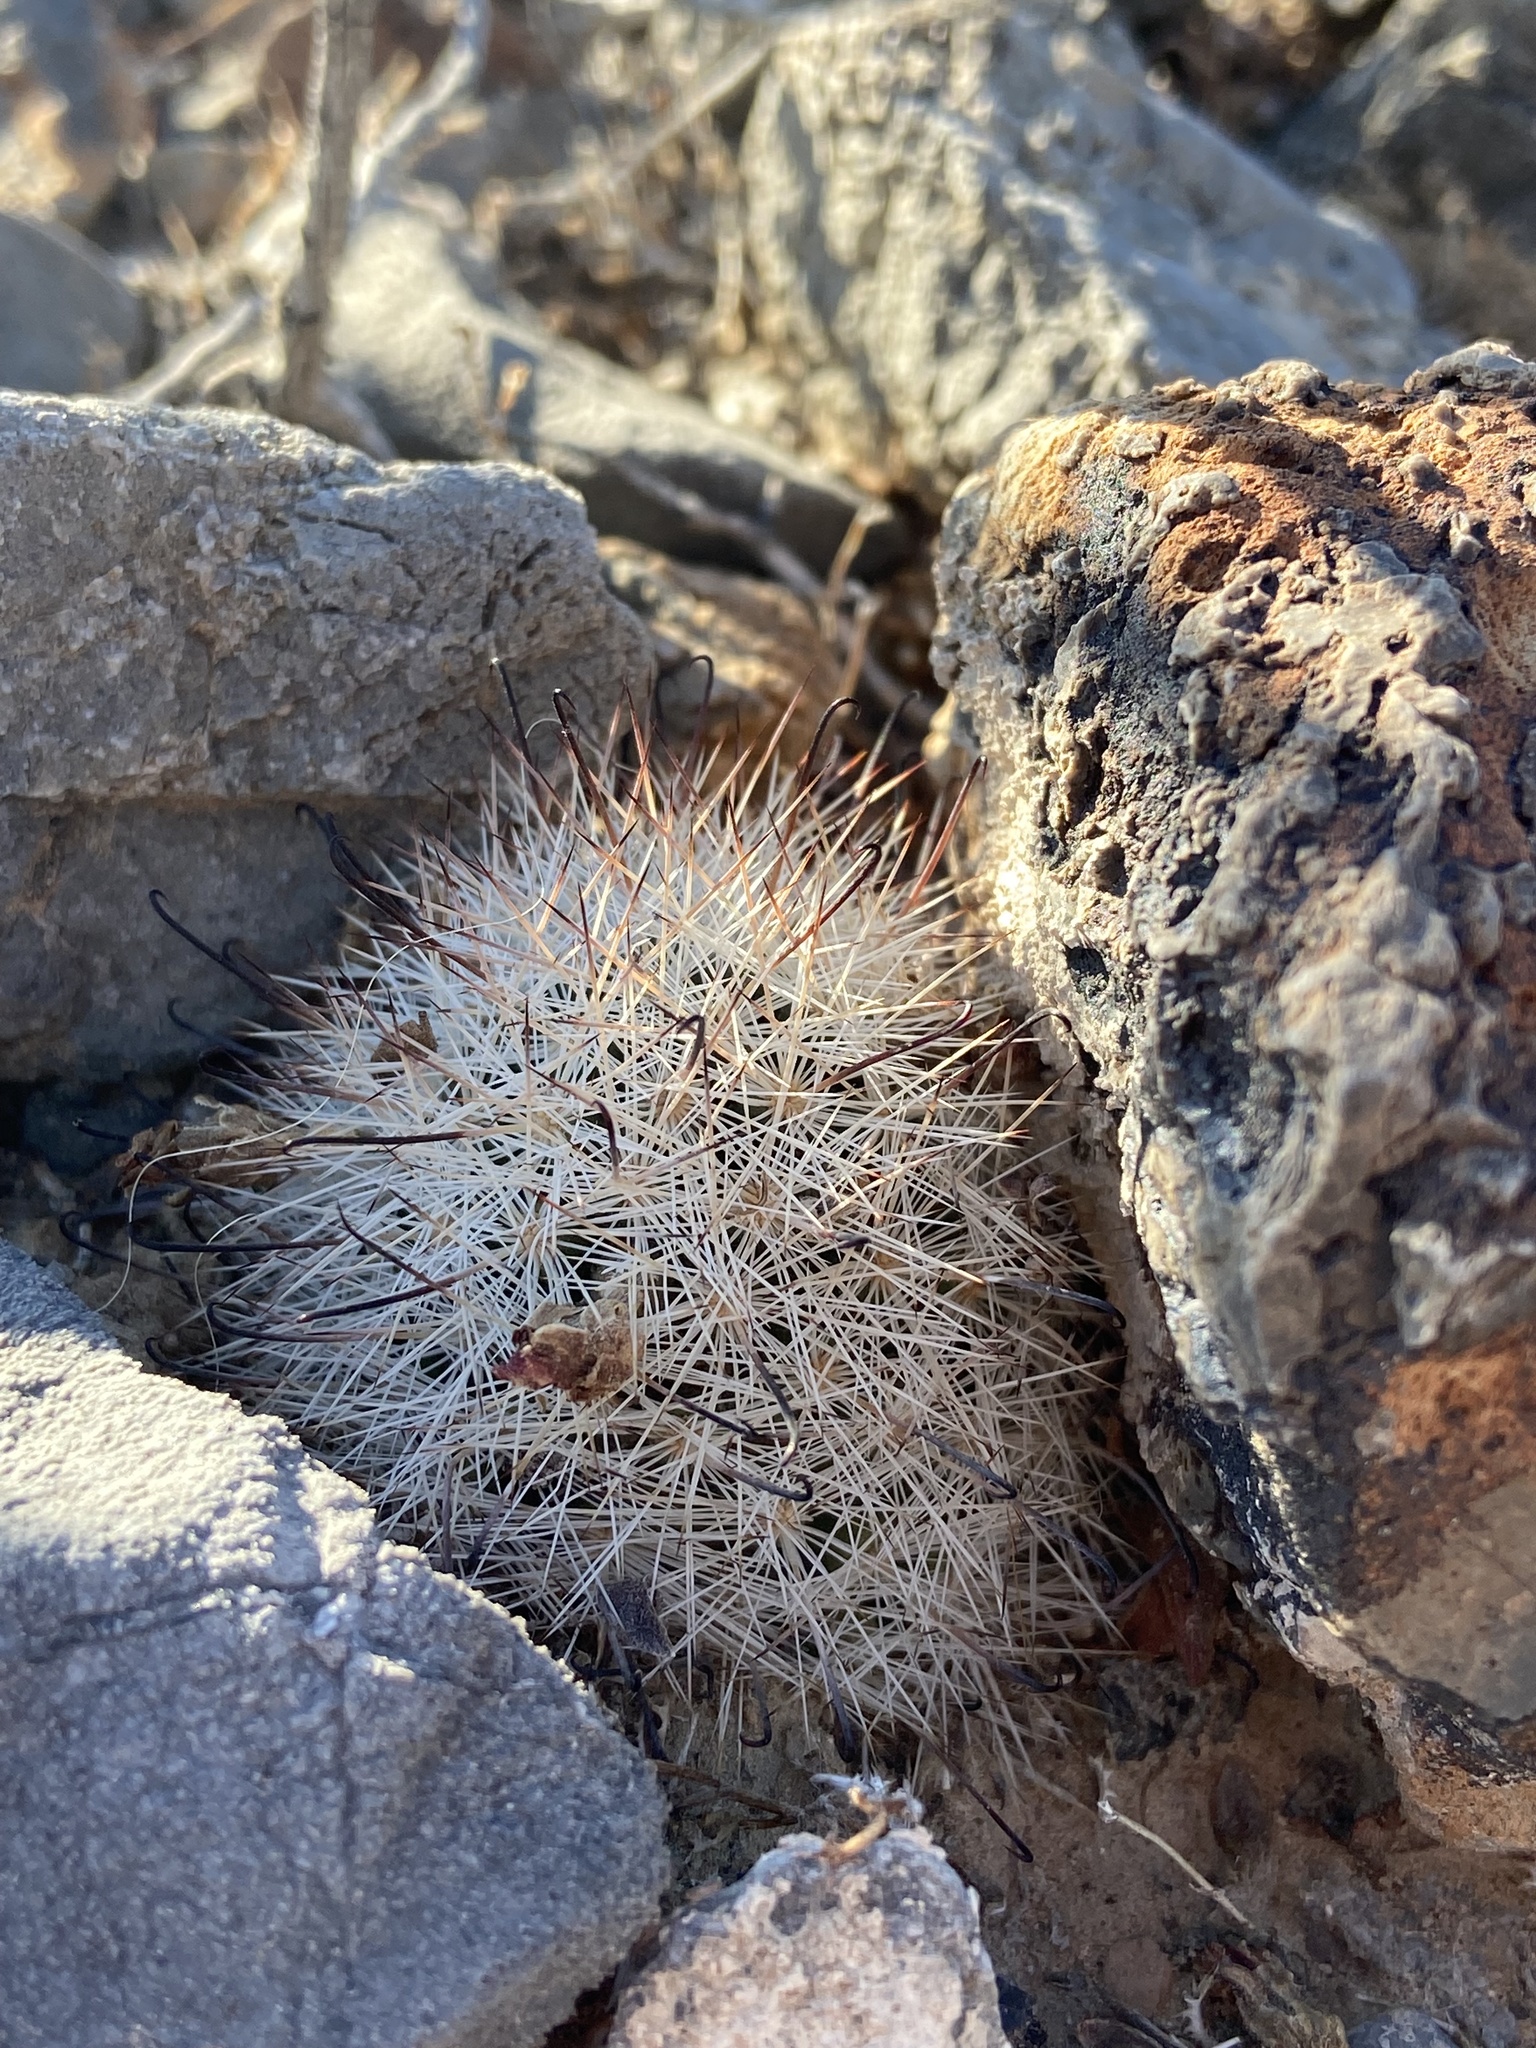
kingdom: Plantae
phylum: Tracheophyta
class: Magnoliopsida
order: Caryophyllales
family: Cactaceae
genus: Cochemiea
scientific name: Cochemiea tetrancistra
